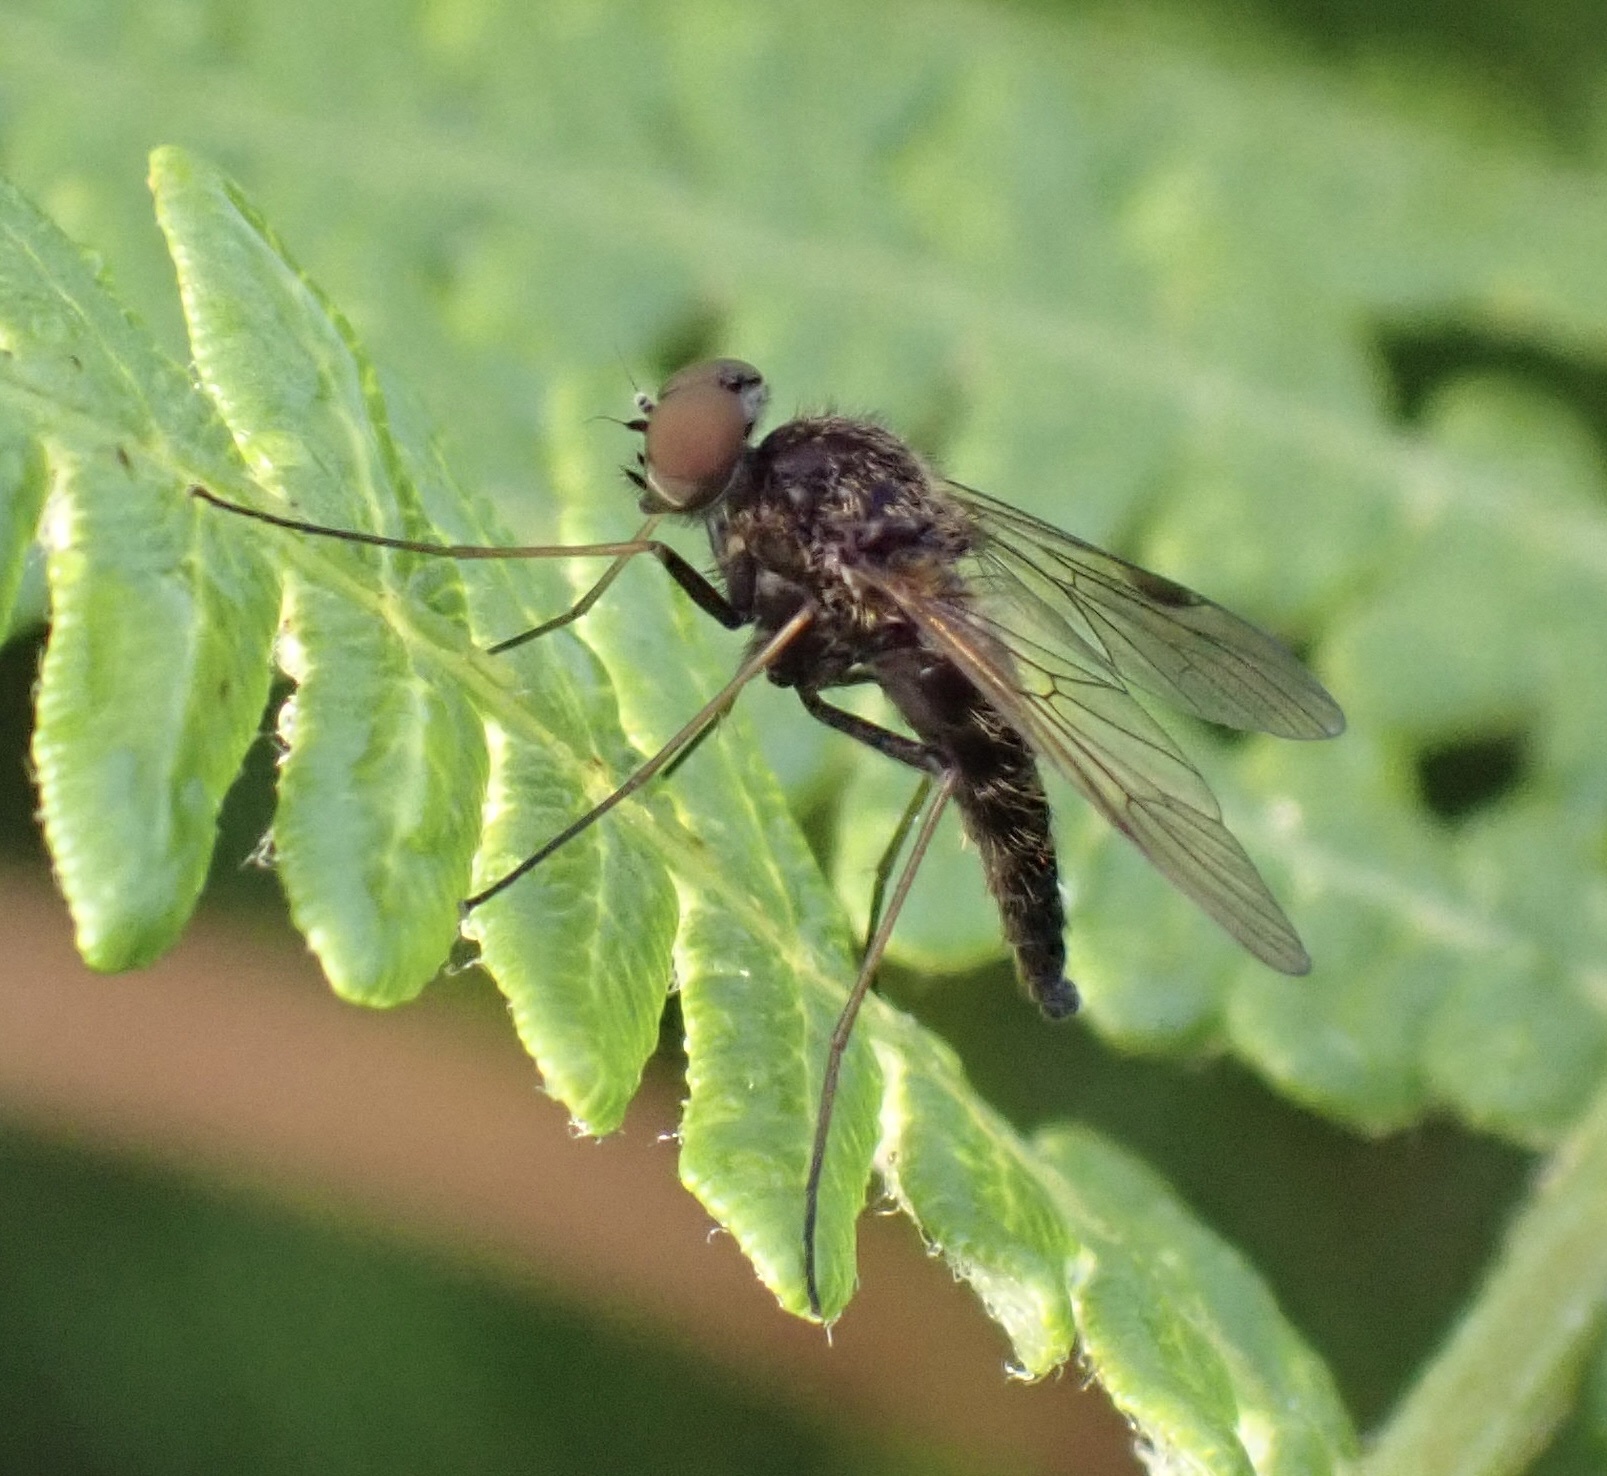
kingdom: Animalia
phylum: Arthropoda
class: Insecta
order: Diptera
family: Rhagionidae
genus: Chrysopilus
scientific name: Chrysopilus cristatus
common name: Black snipefly
